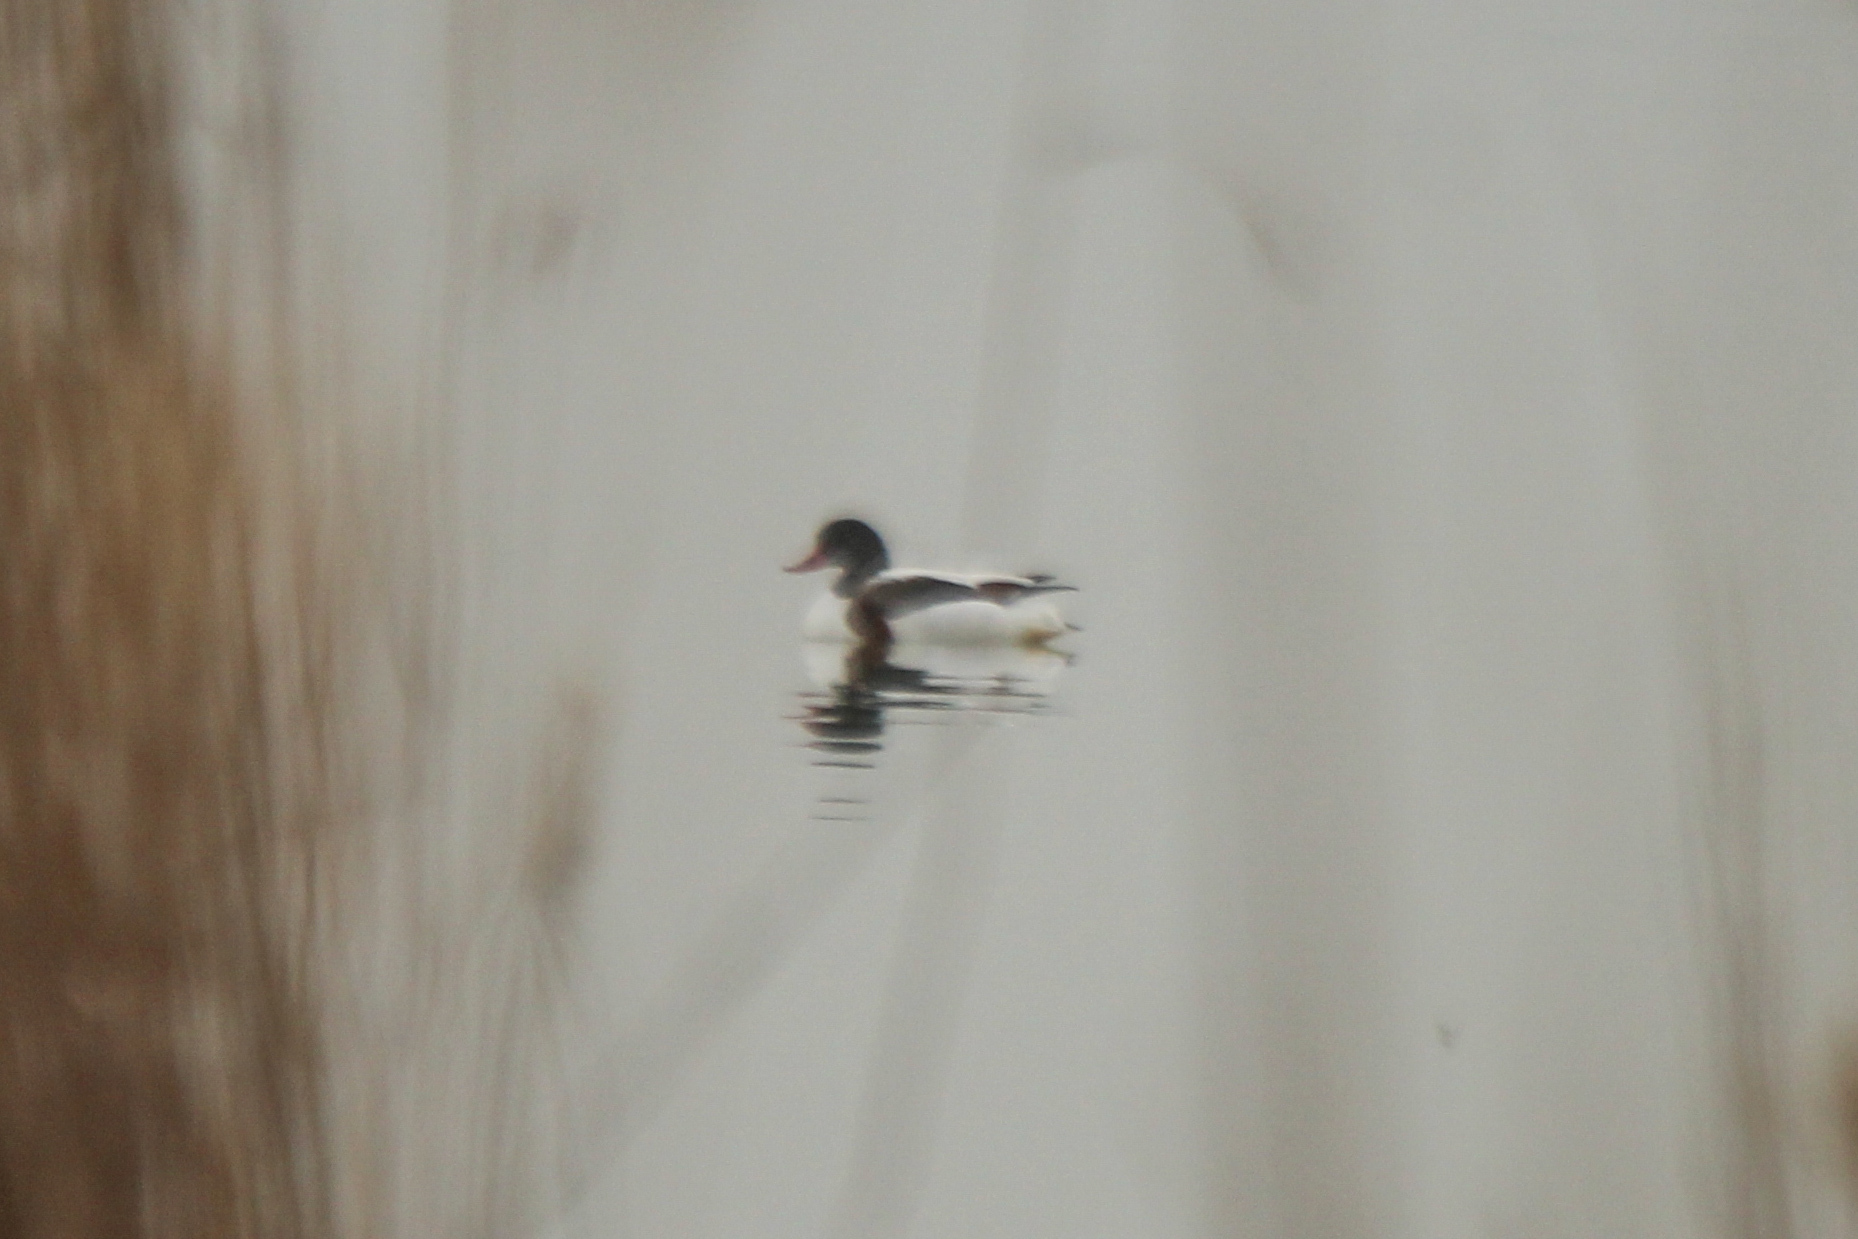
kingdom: Animalia
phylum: Chordata
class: Aves
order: Anseriformes
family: Anatidae
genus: Tadorna
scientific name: Tadorna tadorna
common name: Common shelduck
